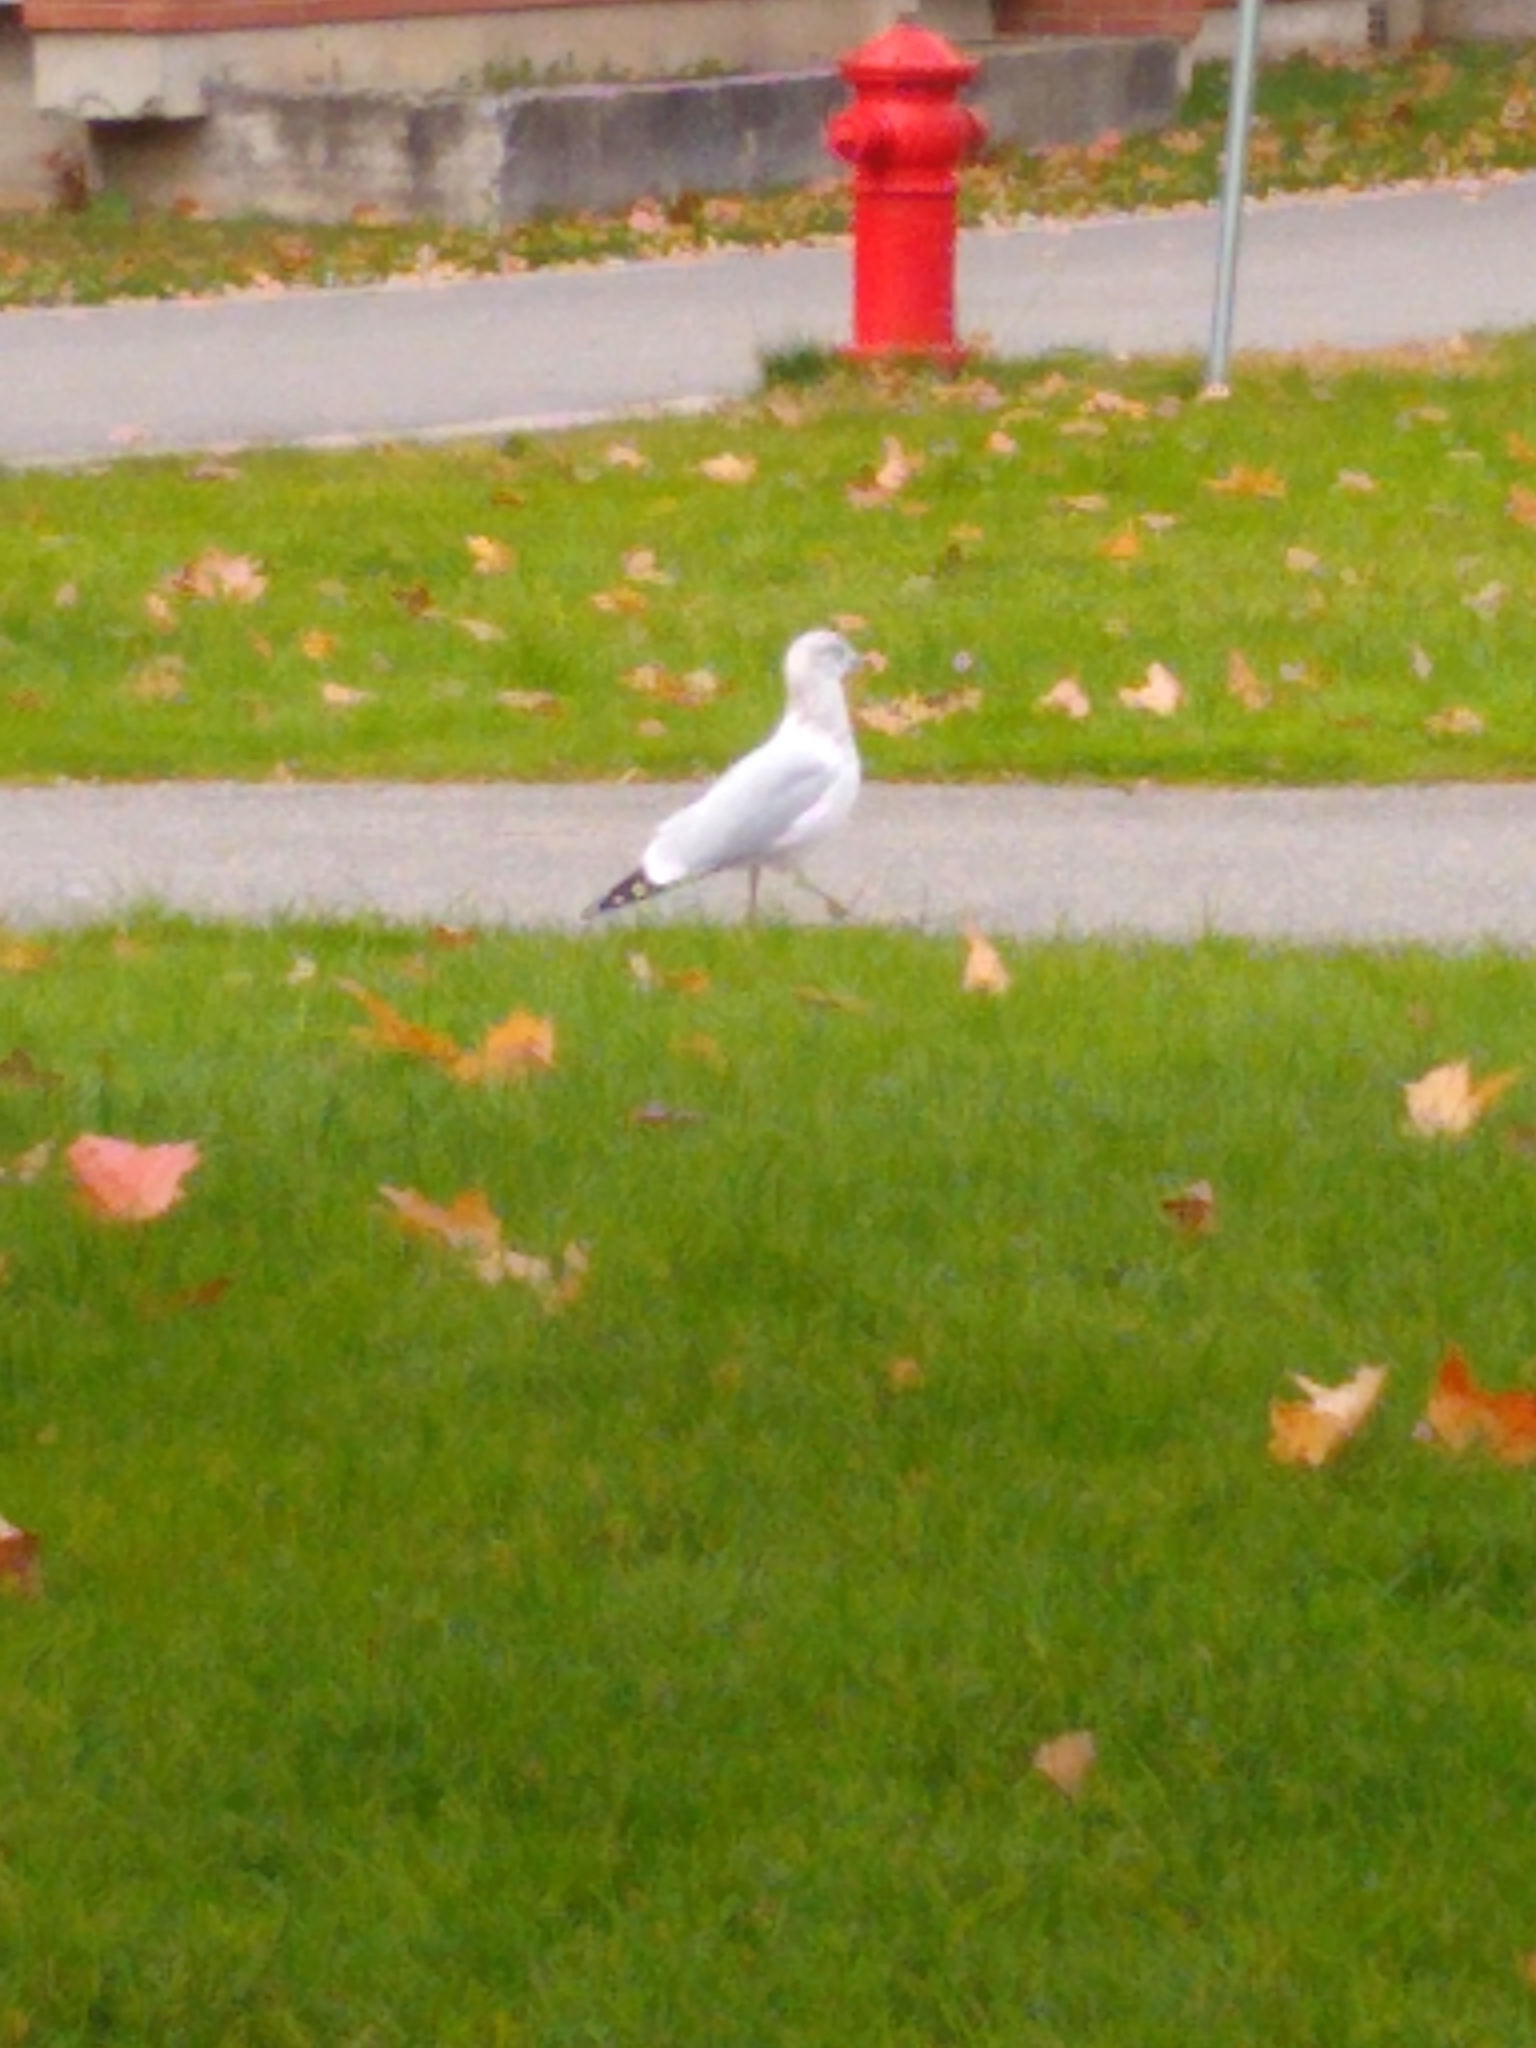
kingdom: Animalia
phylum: Chordata
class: Aves
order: Charadriiformes
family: Laridae
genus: Larus
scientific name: Larus delawarensis
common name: Ring-billed gull
